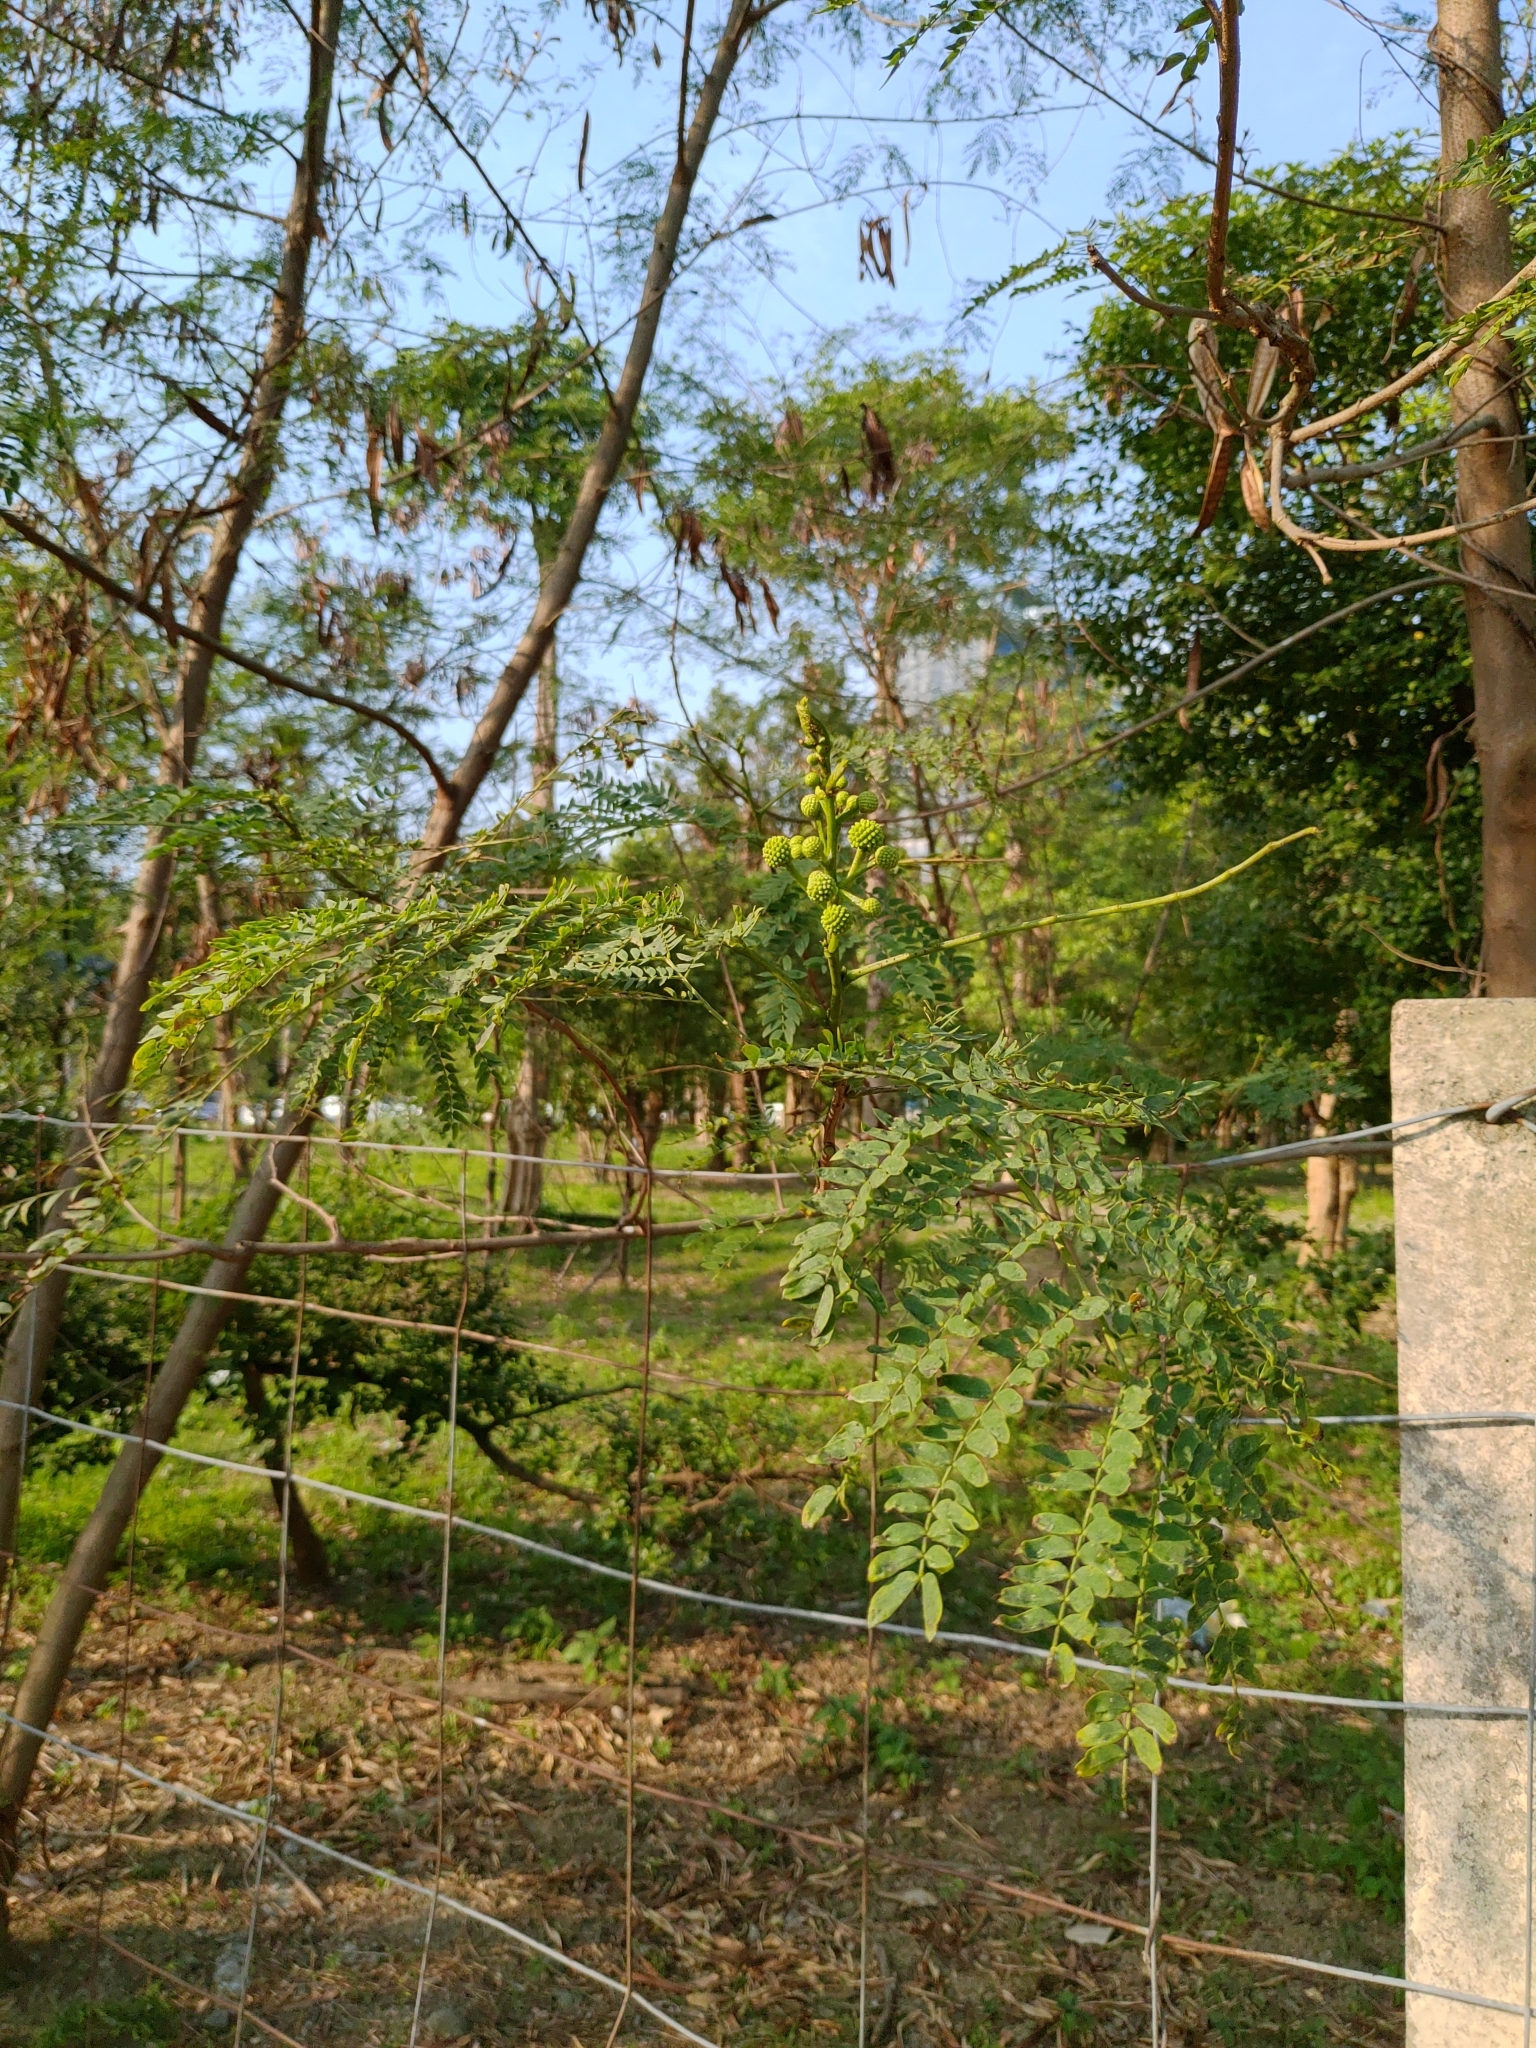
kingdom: Plantae
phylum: Tracheophyta
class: Magnoliopsida
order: Fabales
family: Fabaceae
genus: Leucaena
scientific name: Leucaena leucocephala
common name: White leadtree
